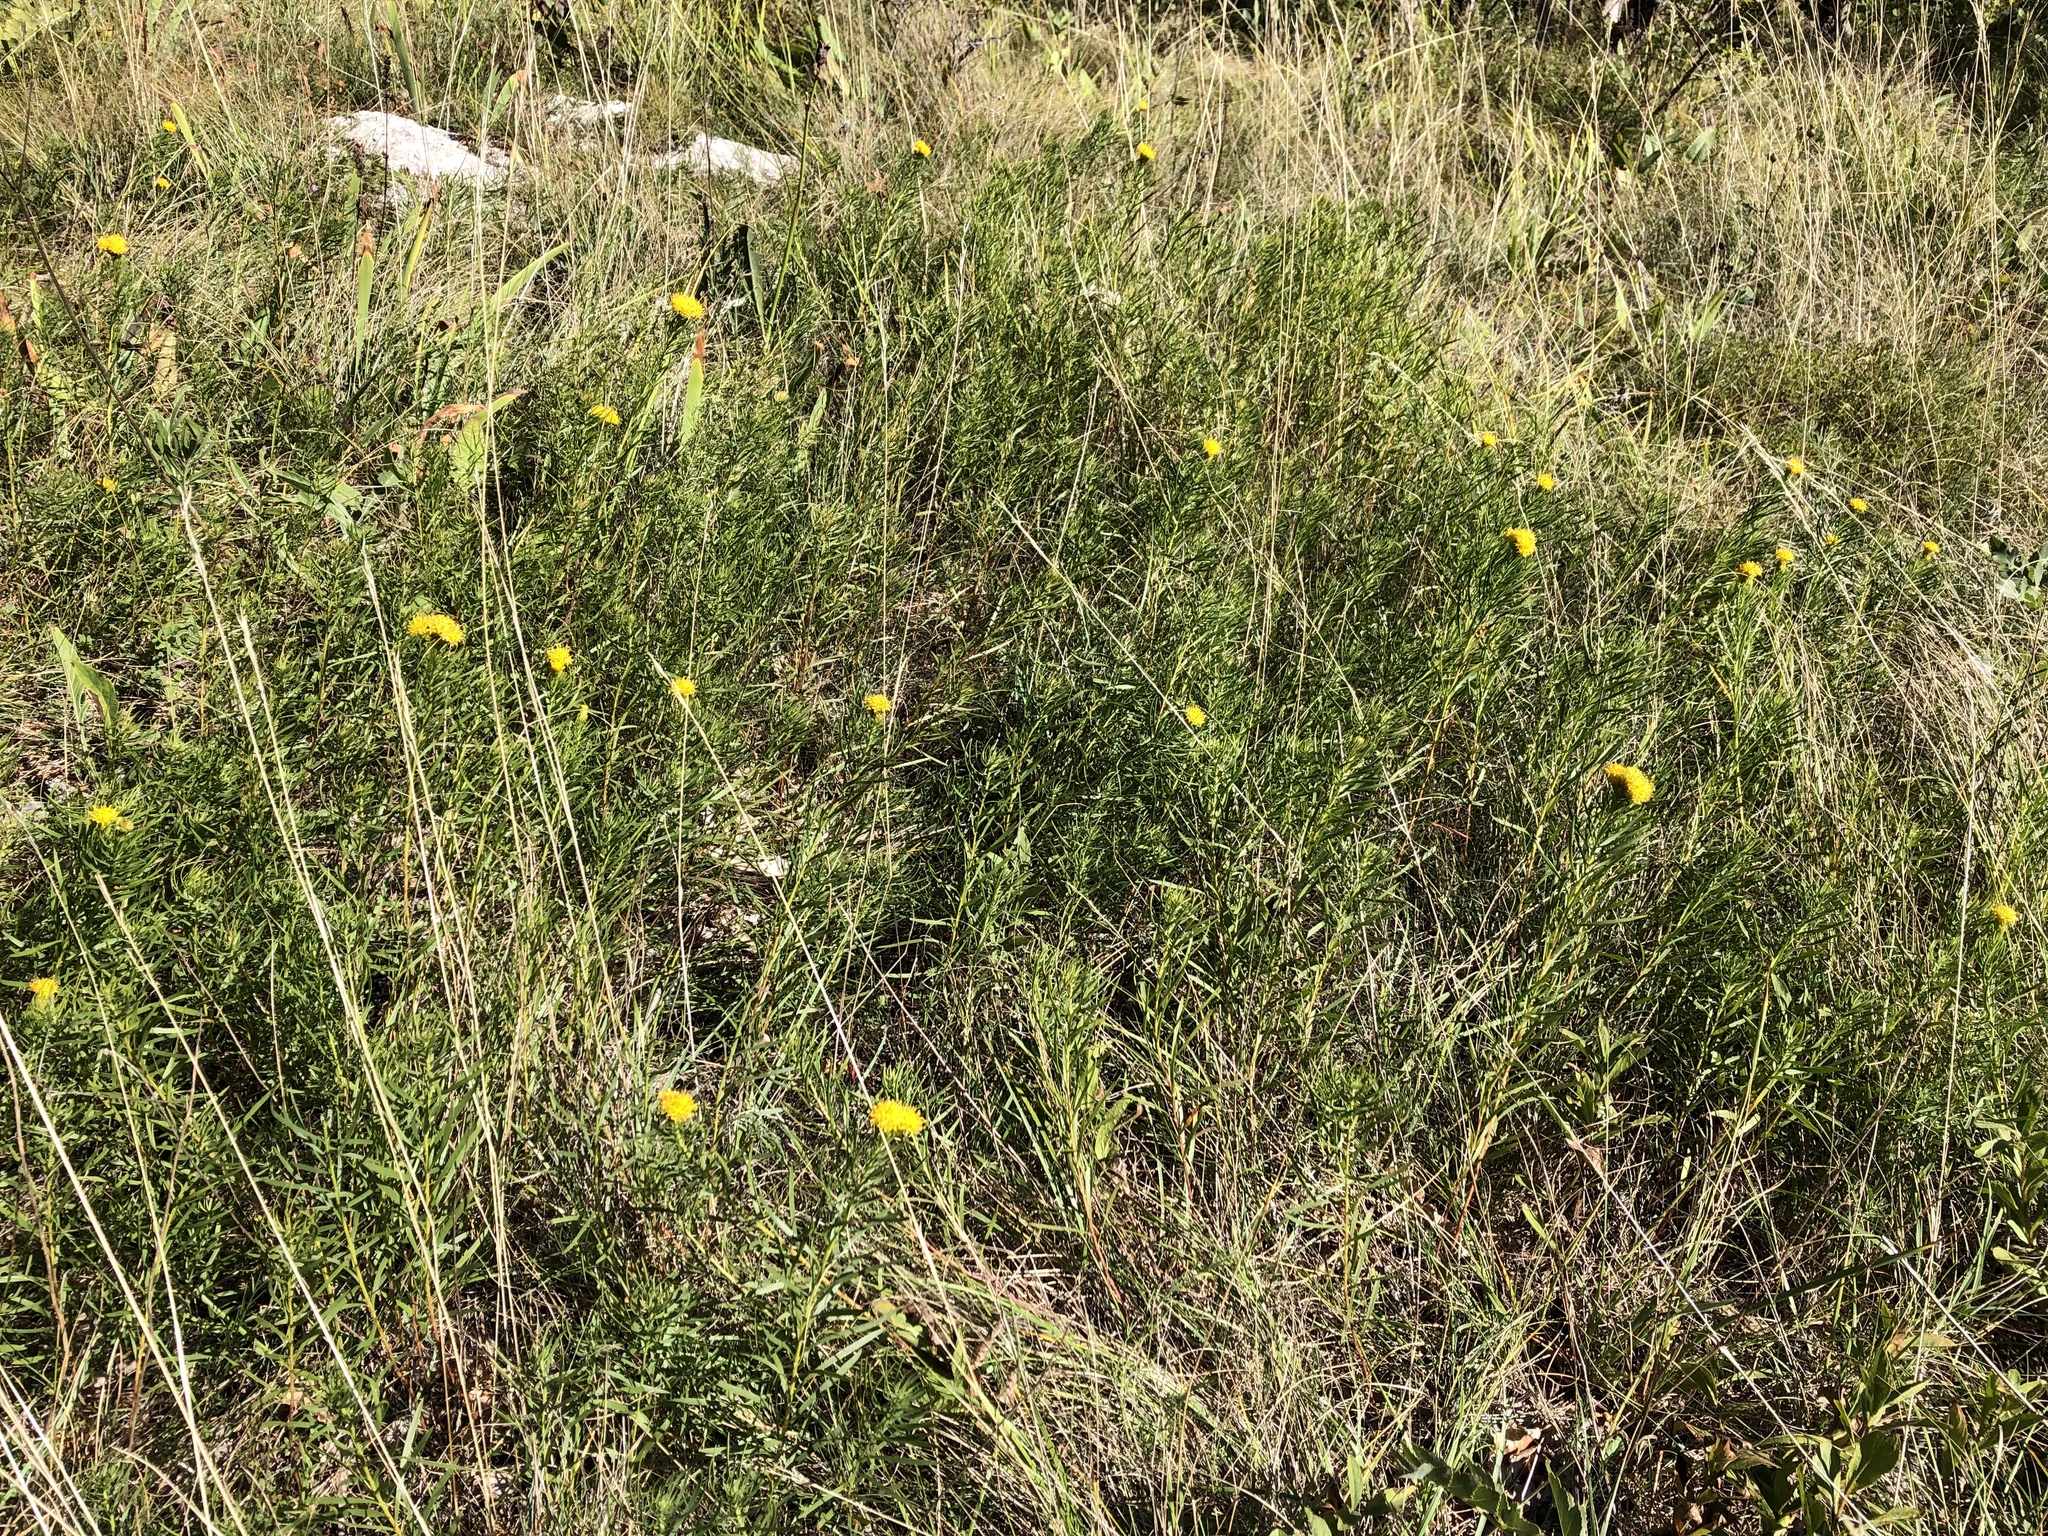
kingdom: Plantae
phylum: Tracheophyta
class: Magnoliopsida
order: Asterales
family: Asteraceae
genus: Galatella
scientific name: Galatella linosyris
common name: Goldilocks aster
